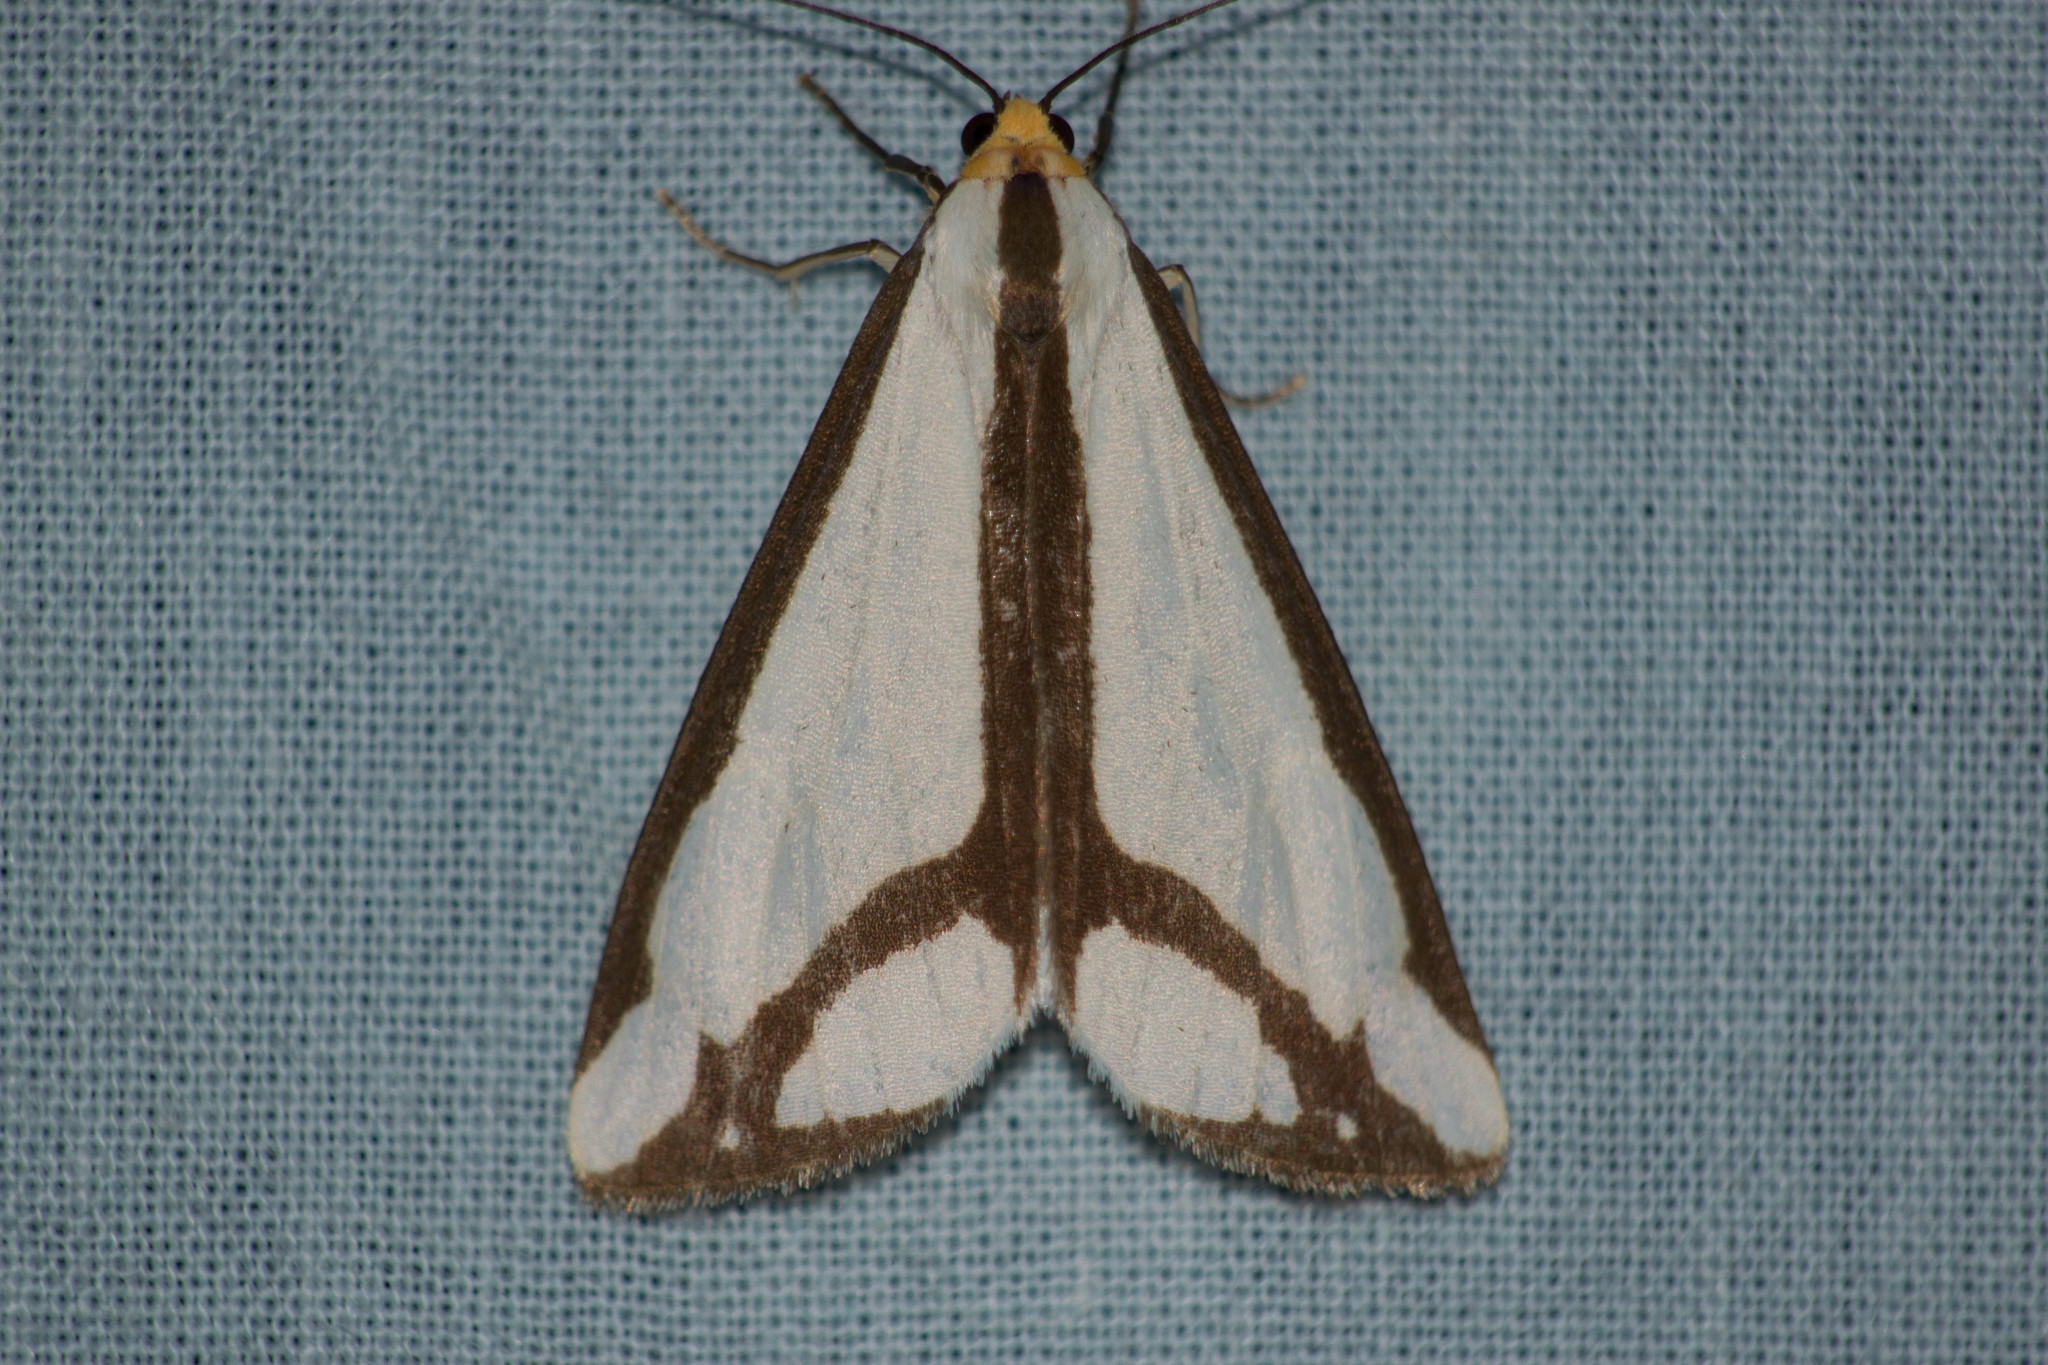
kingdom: Animalia
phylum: Arthropoda
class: Insecta
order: Lepidoptera
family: Erebidae
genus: Haploa
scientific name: Haploa lecontei
